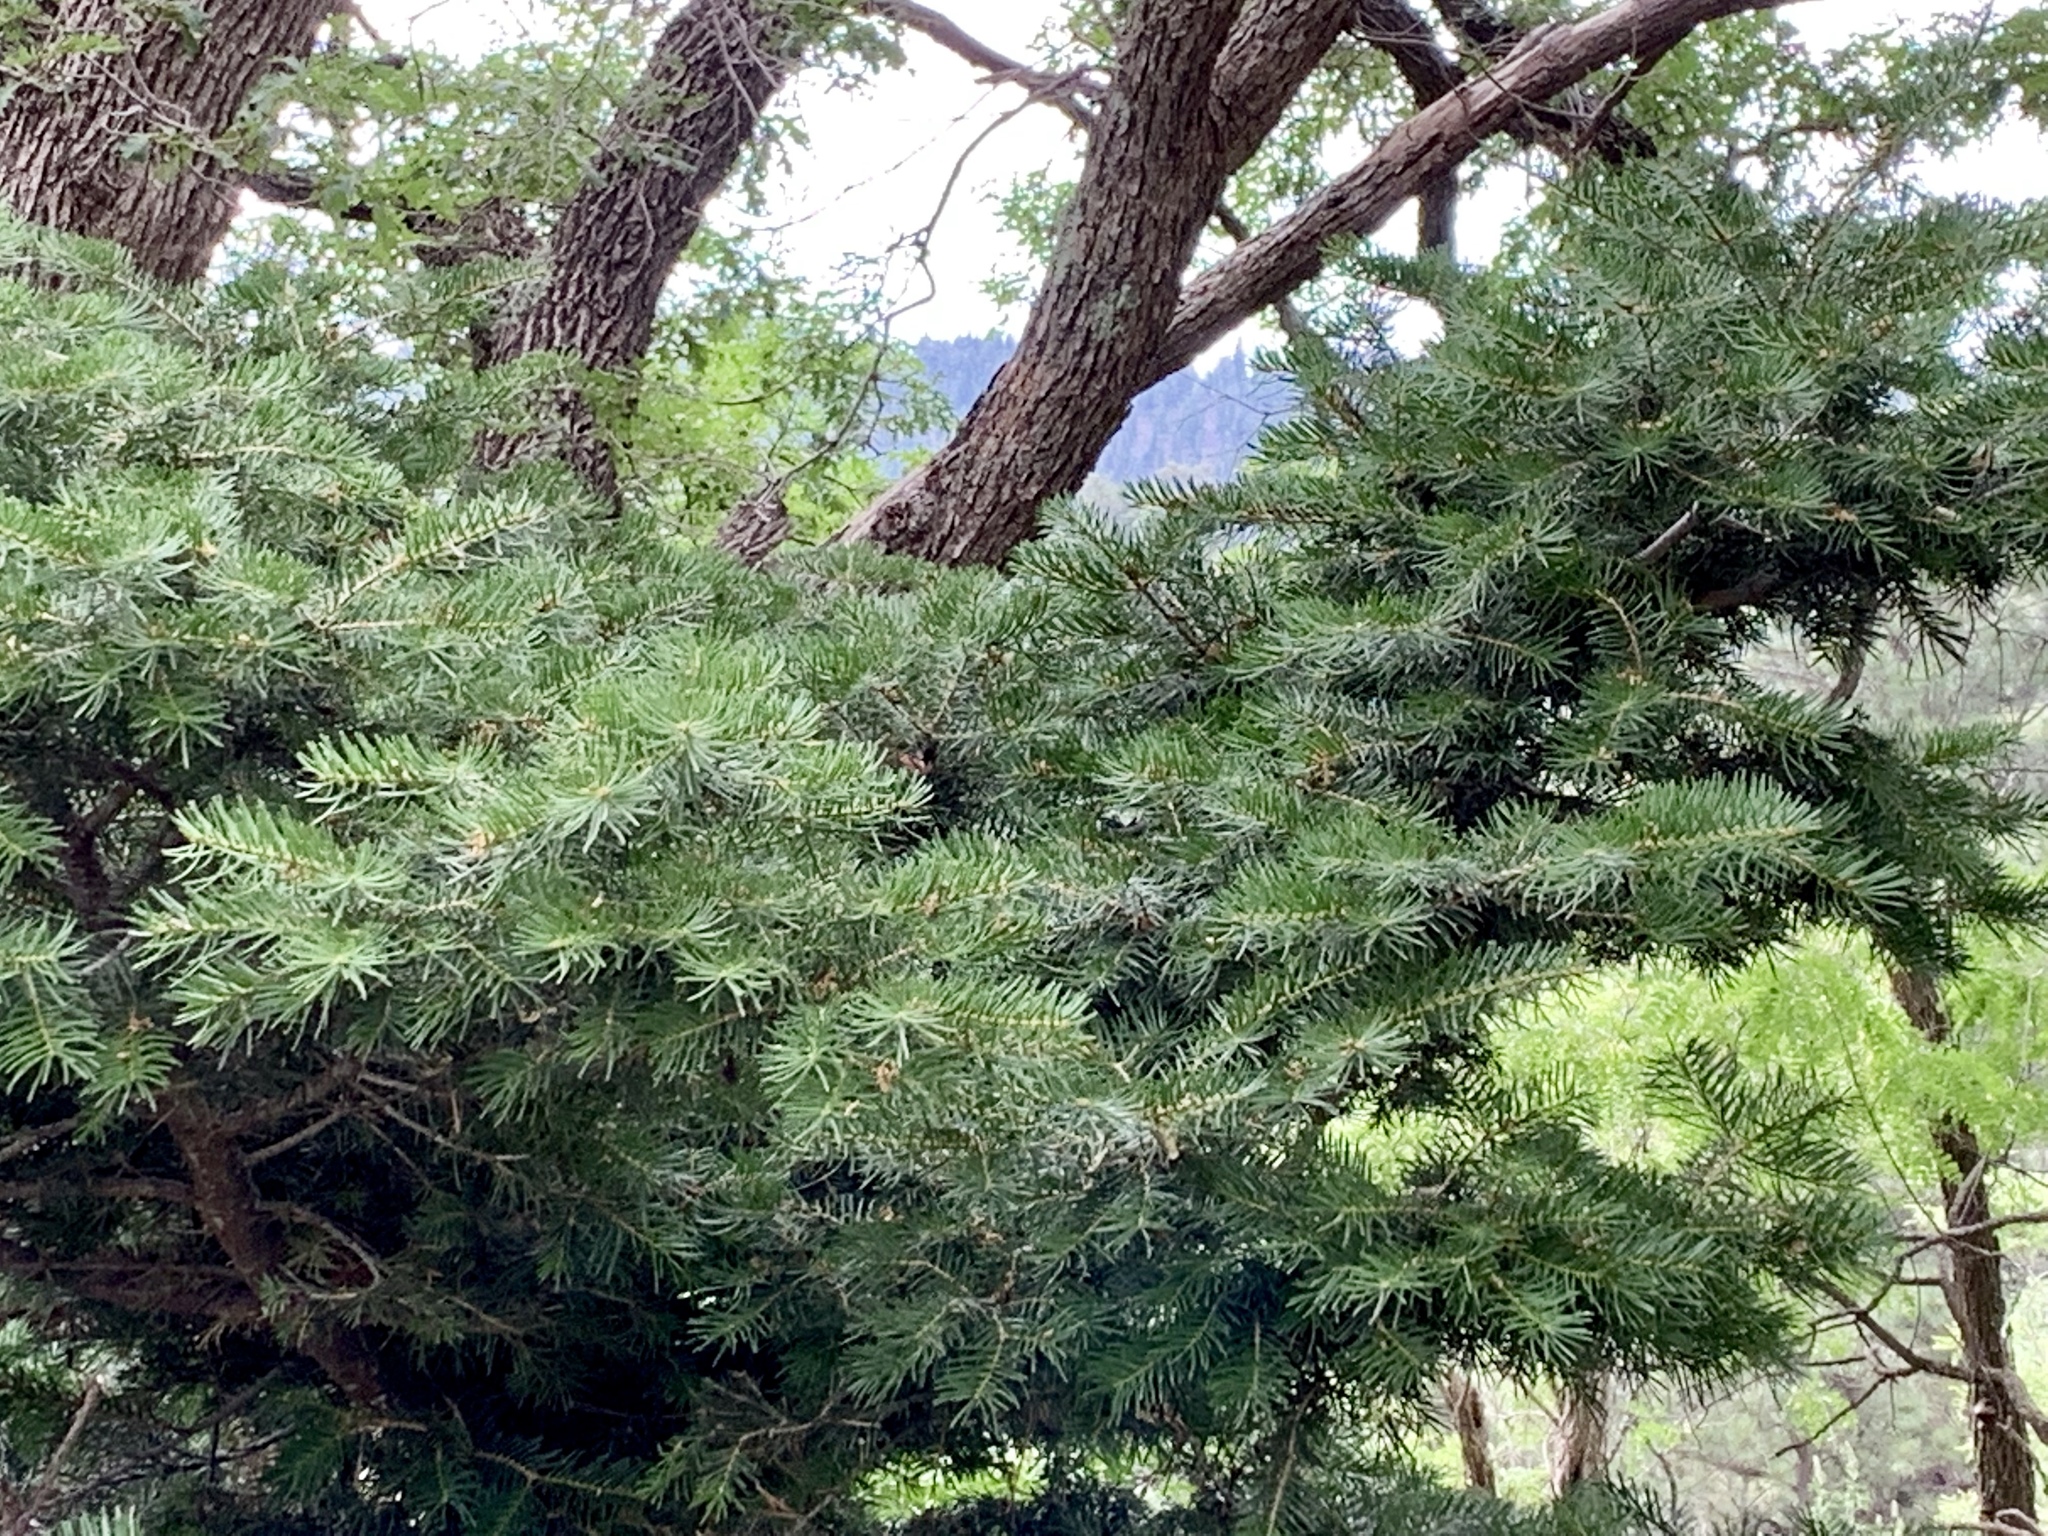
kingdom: Plantae
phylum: Tracheophyta
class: Pinopsida
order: Pinales
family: Pinaceae
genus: Abies
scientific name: Abies concolor
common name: Colorado fir
